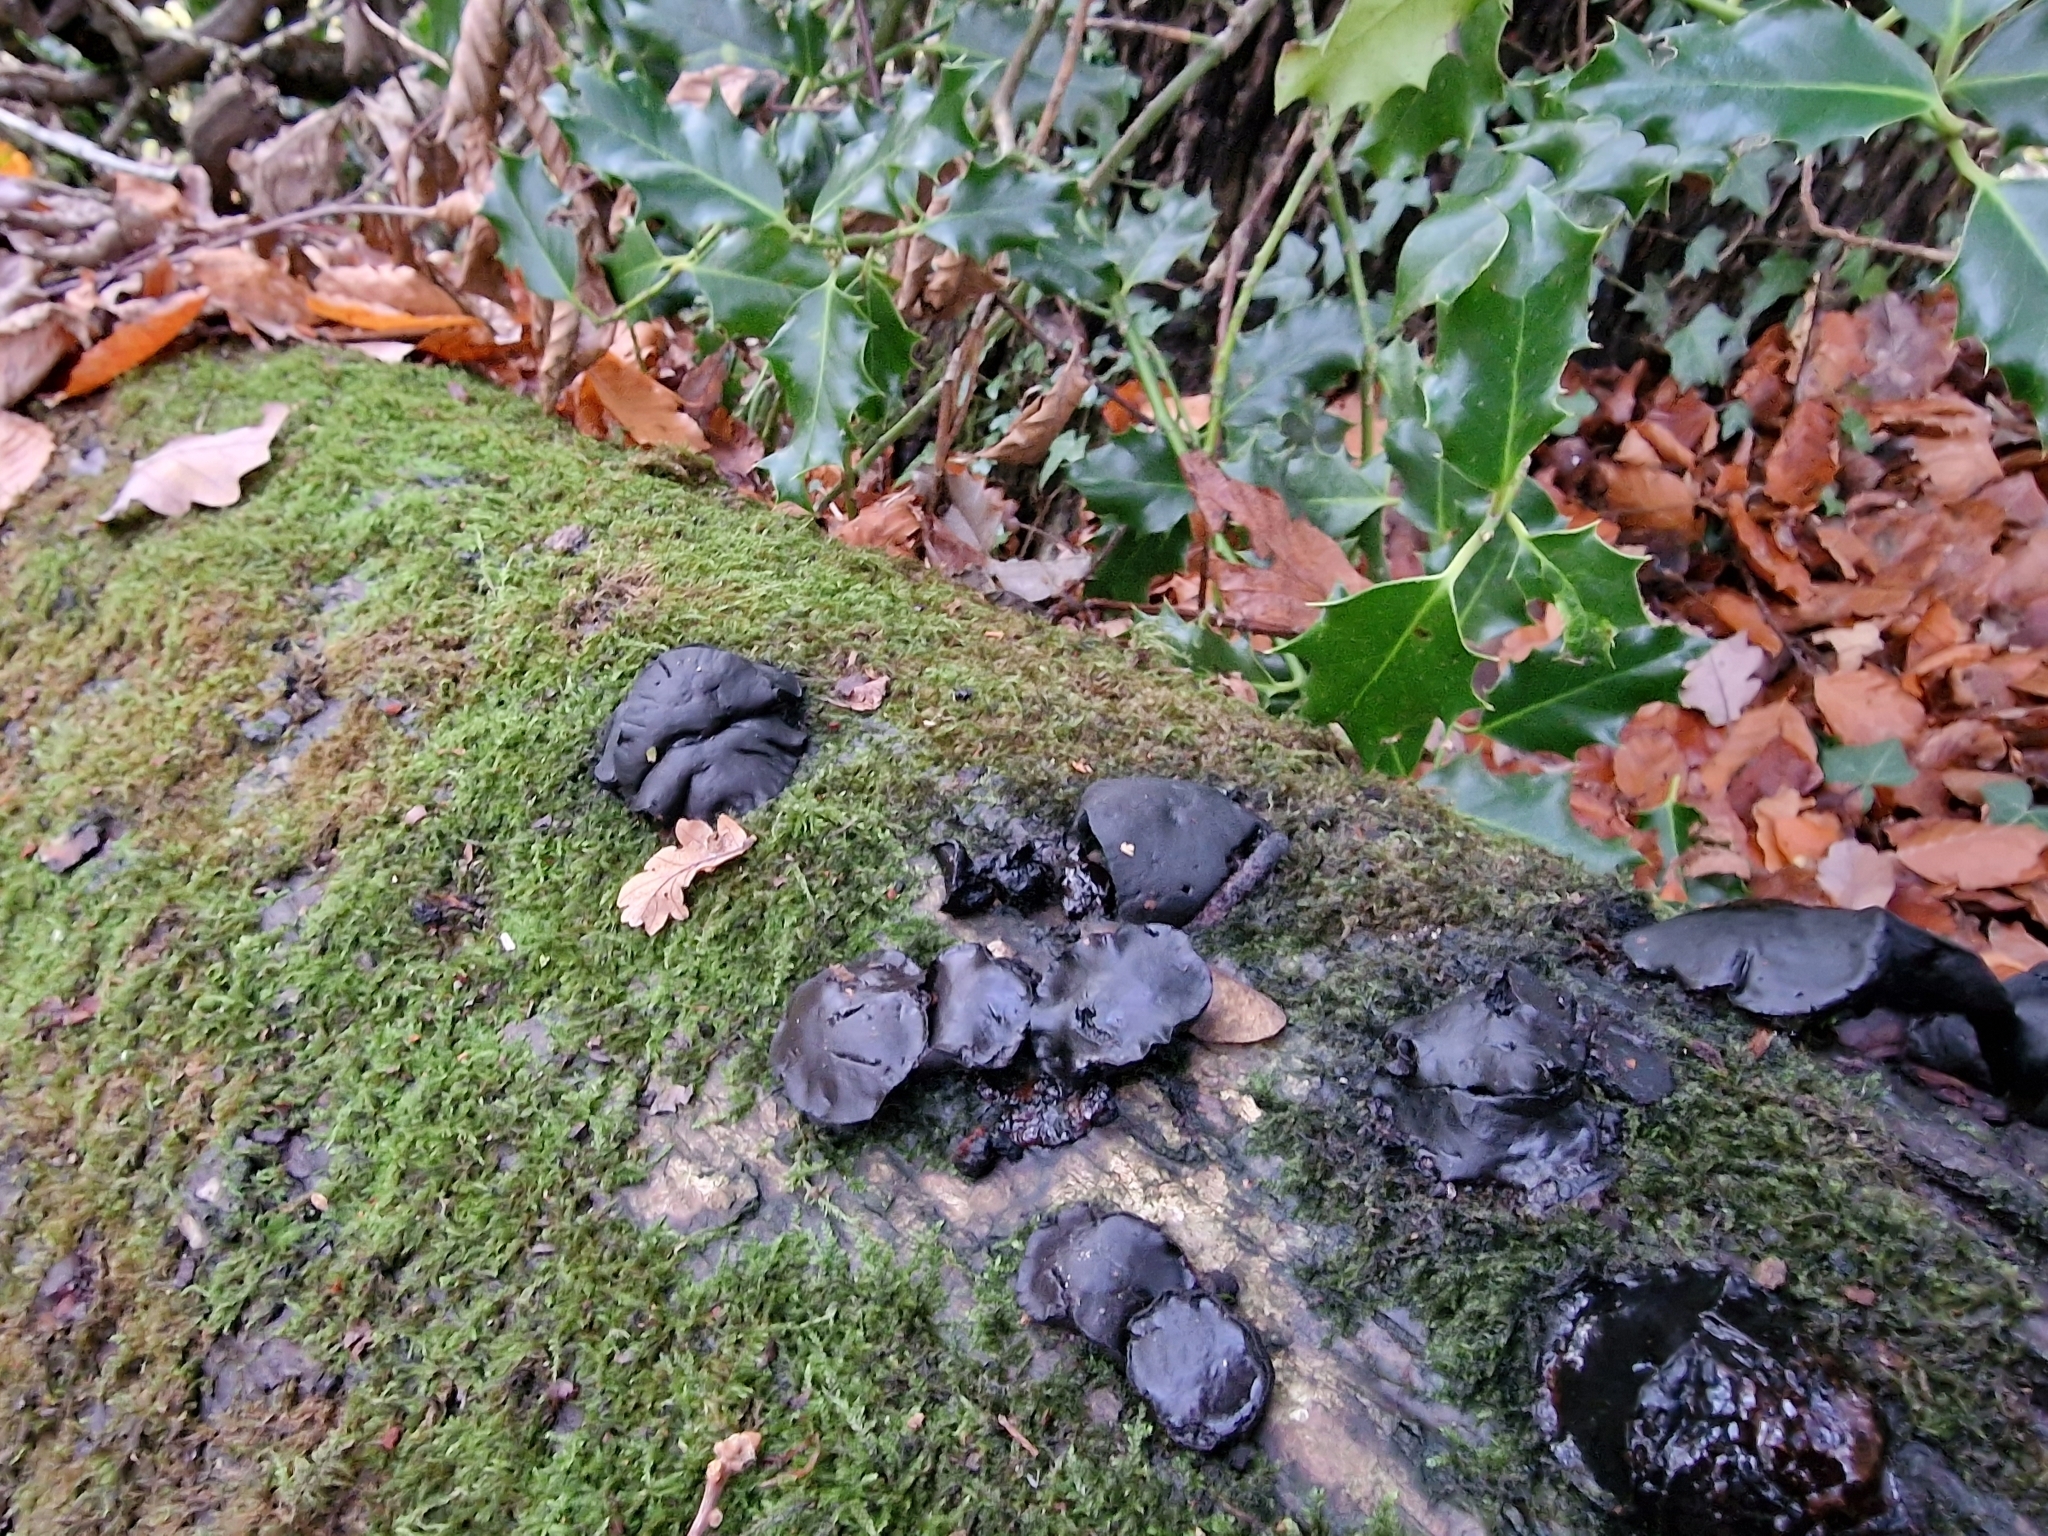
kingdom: Fungi
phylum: Ascomycota
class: Leotiomycetes
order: Phacidiales
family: Phacidiaceae
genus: Bulgaria
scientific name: Bulgaria inquinans
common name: Black bulgar
